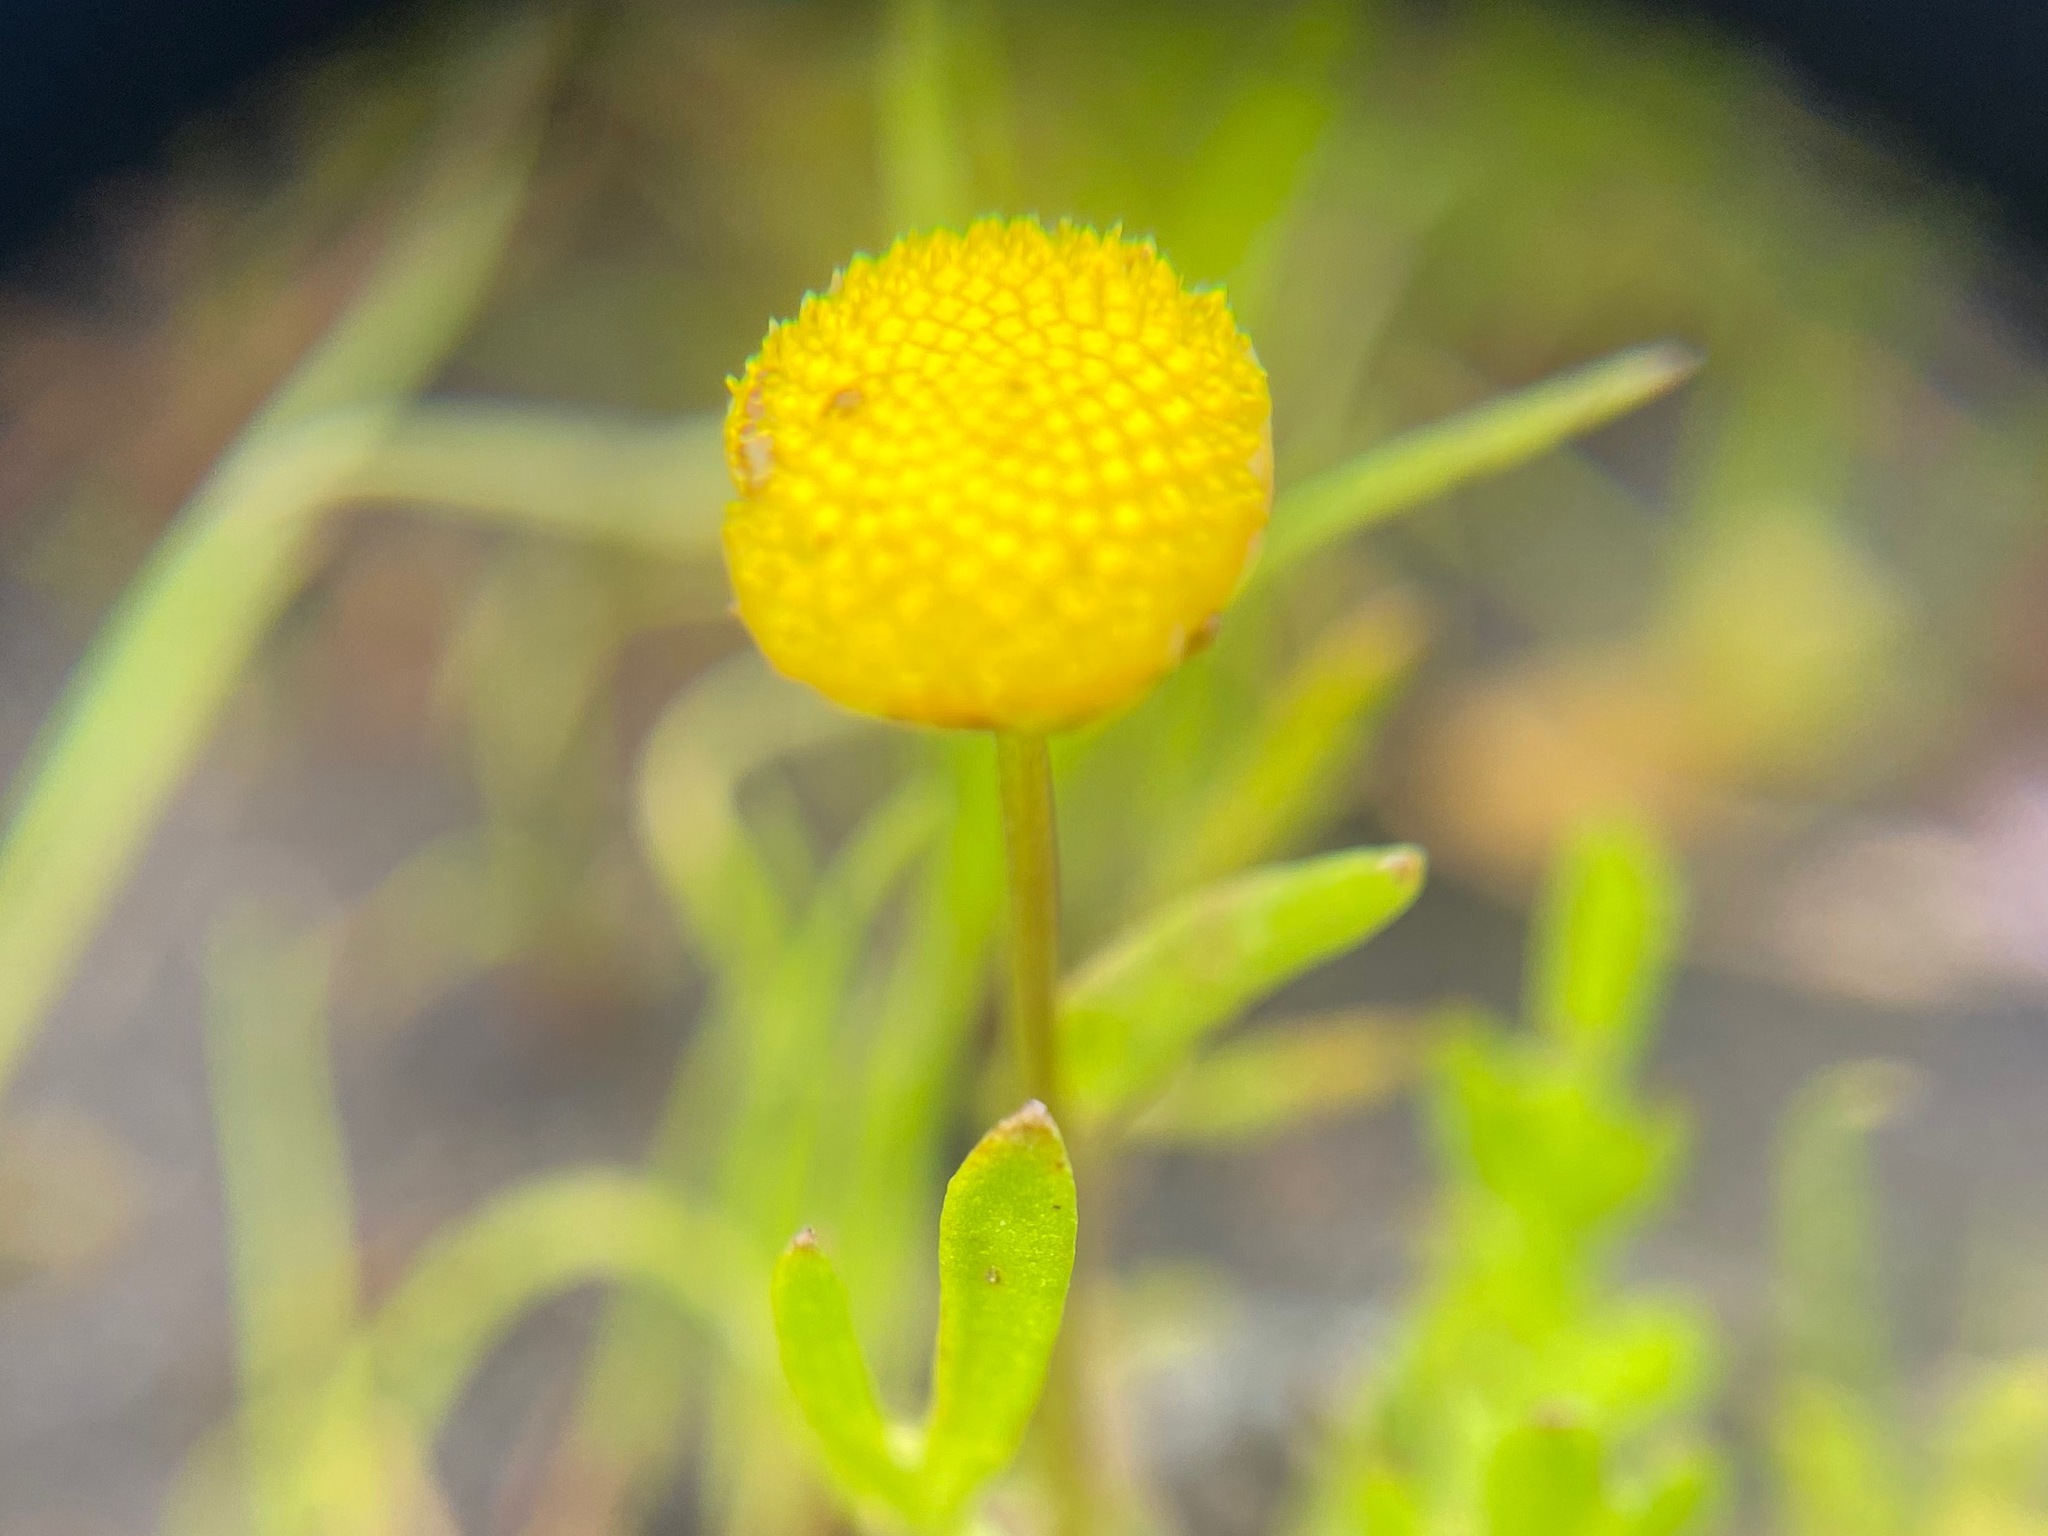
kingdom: Plantae
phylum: Tracheophyta
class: Magnoliopsida
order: Asterales
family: Asteraceae
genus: Cotula
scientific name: Cotula coronopifolia
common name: Buttonweed
